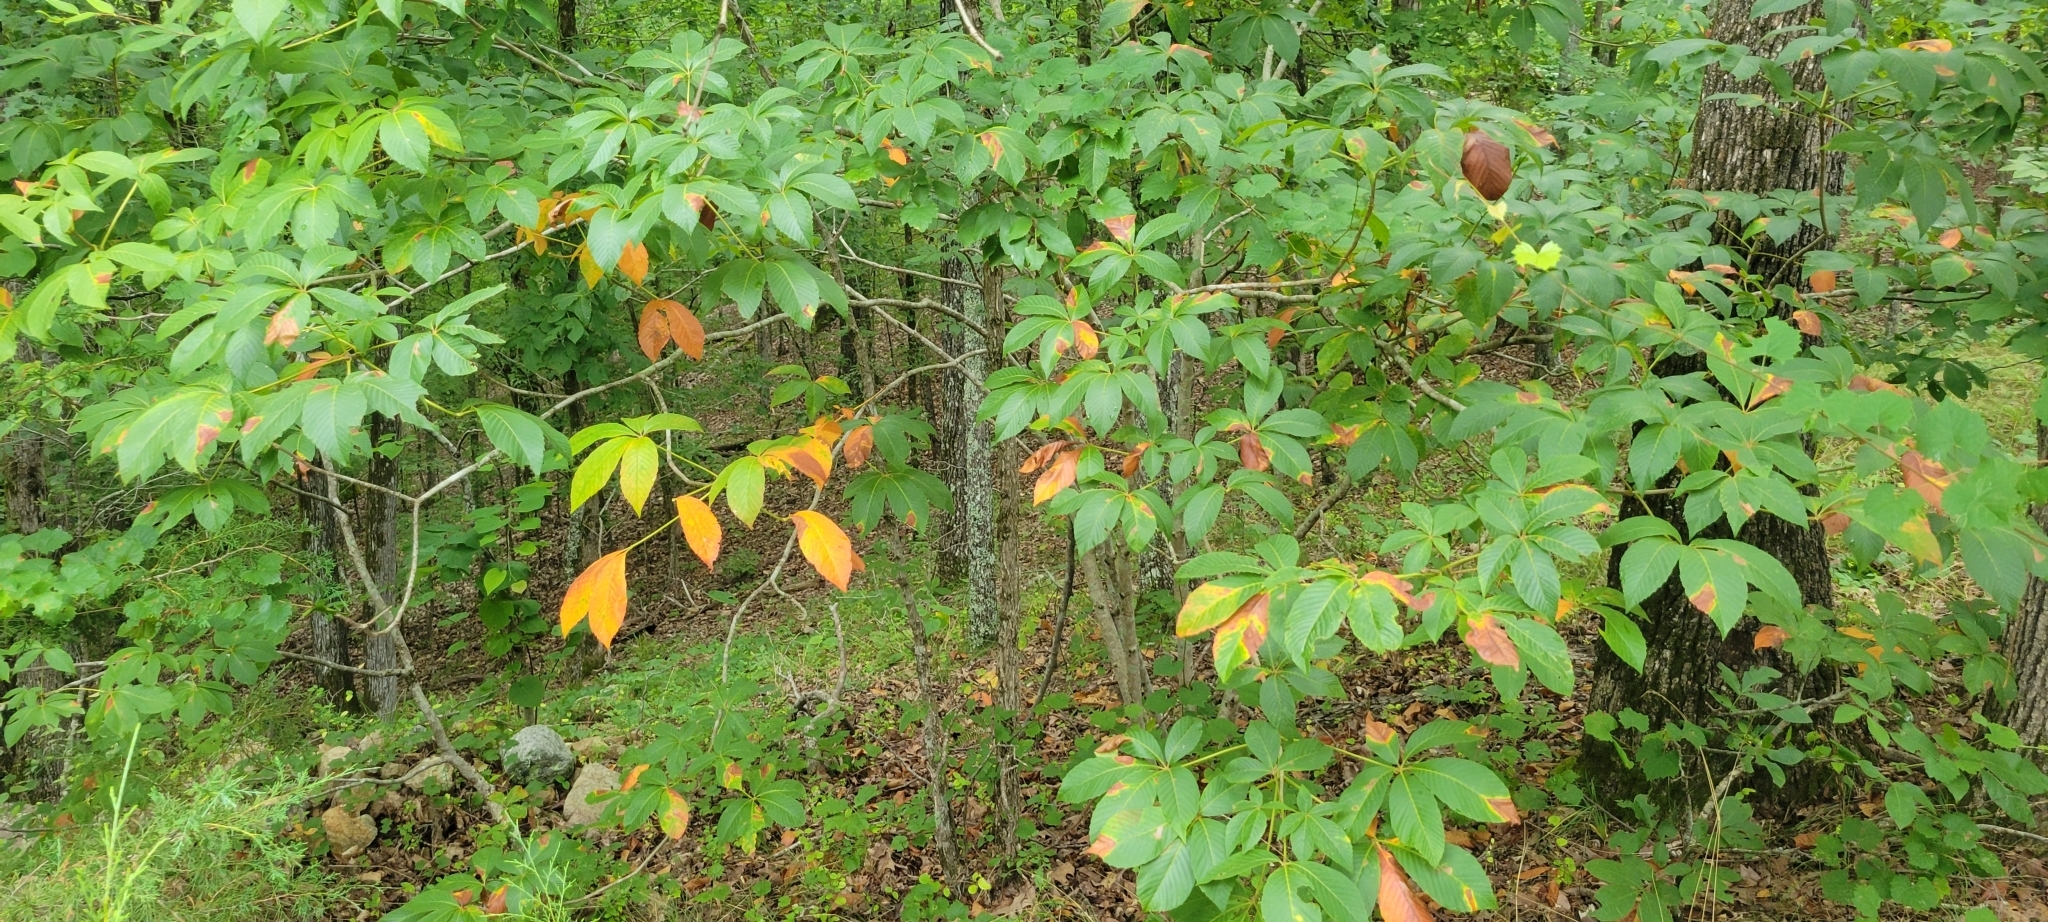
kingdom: Plantae
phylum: Tracheophyta
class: Magnoliopsida
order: Sapindales
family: Sapindaceae
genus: Aesculus
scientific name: Aesculus sylvatica
